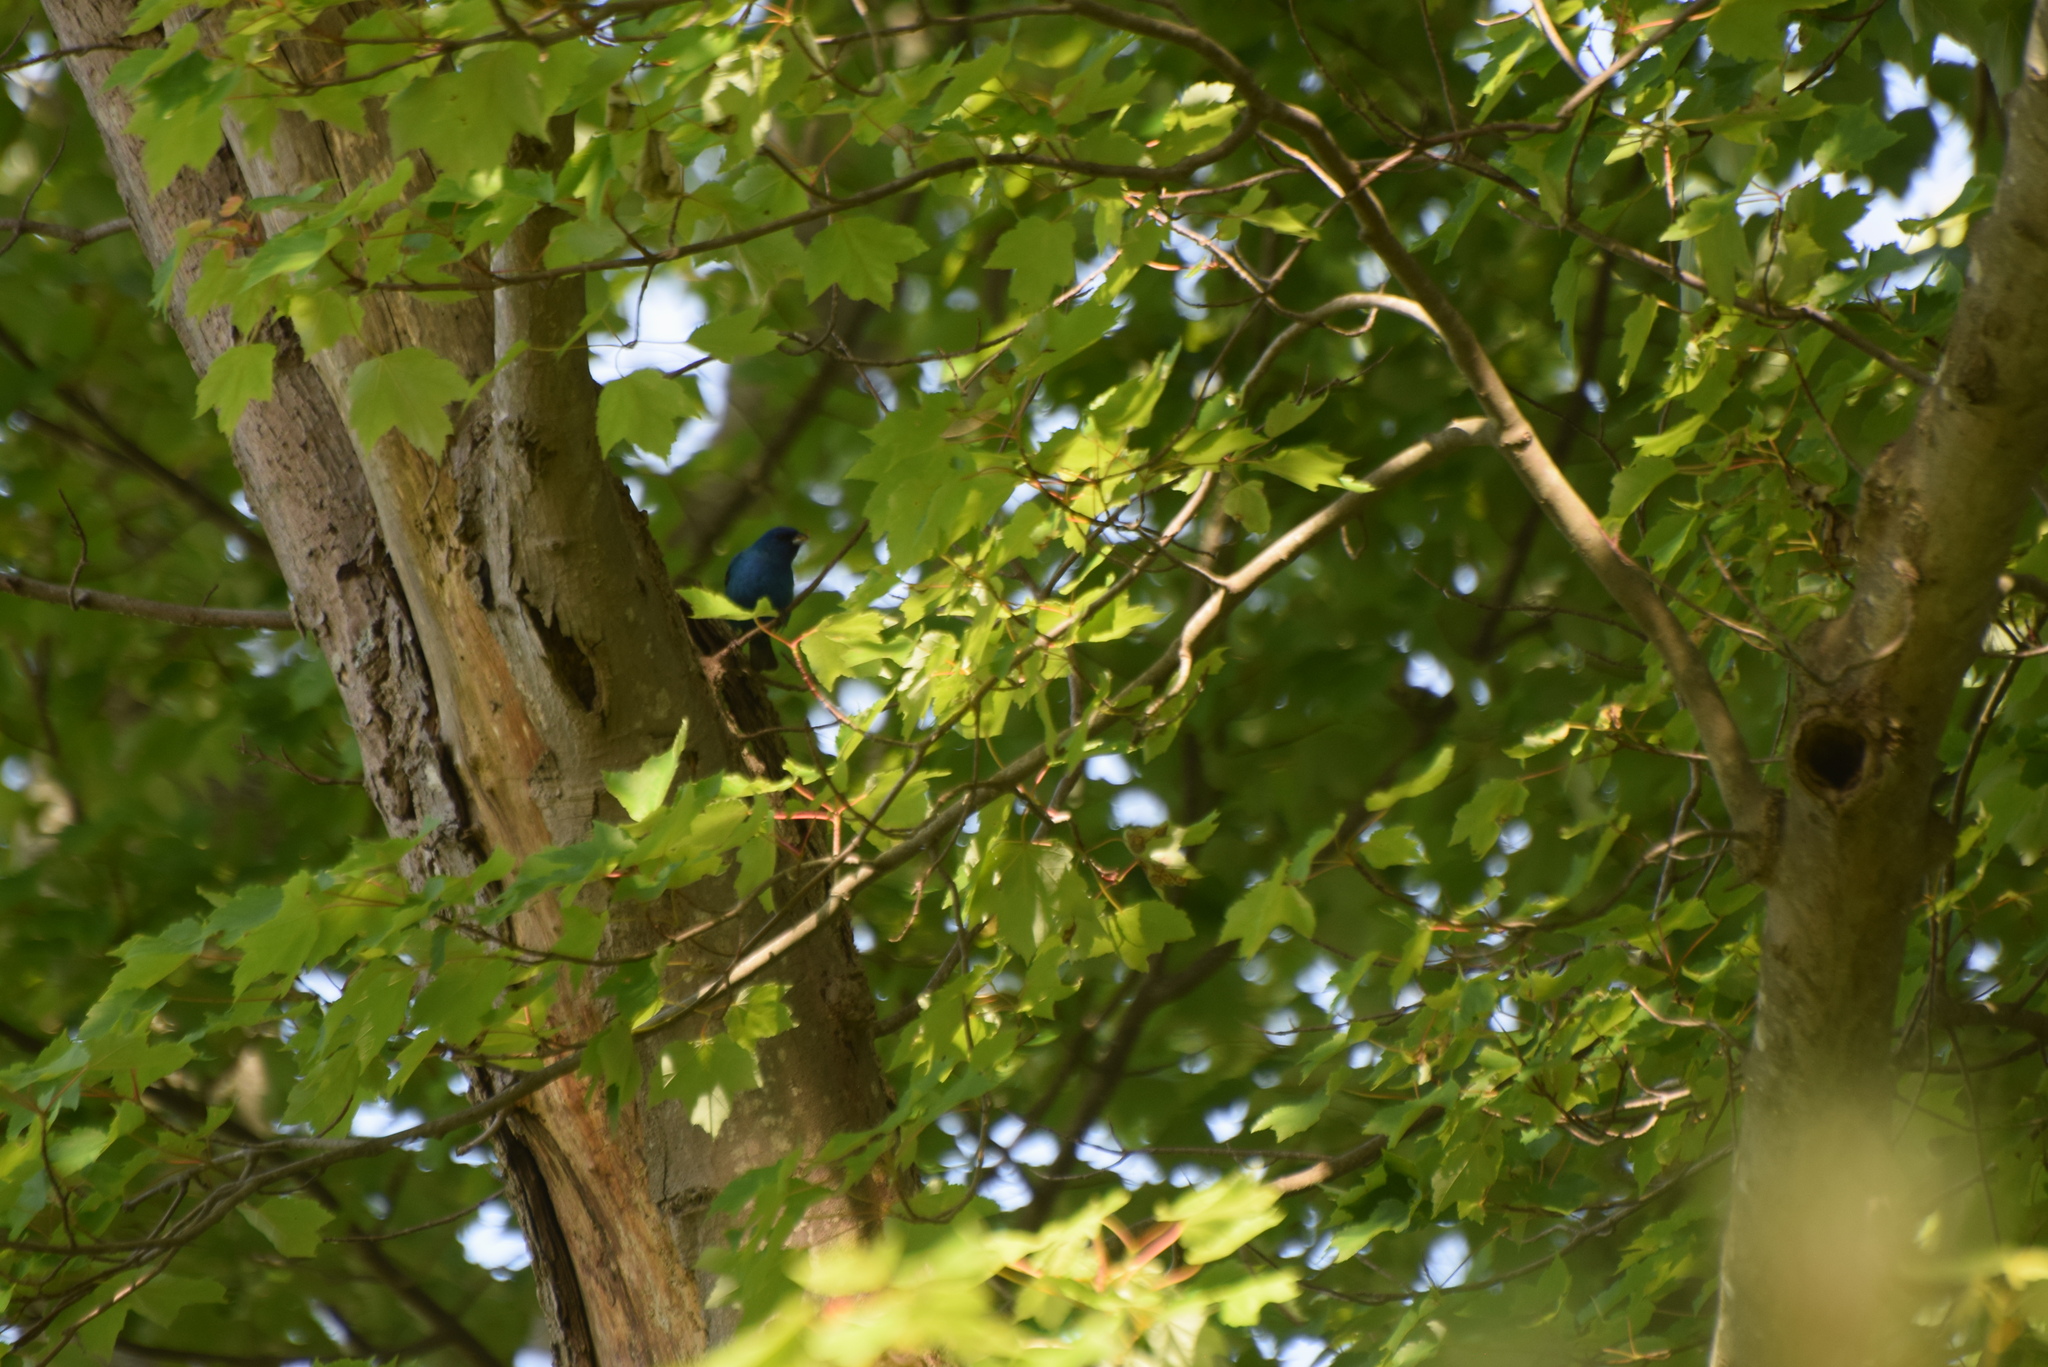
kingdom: Animalia
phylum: Chordata
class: Aves
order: Passeriformes
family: Cardinalidae
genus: Passerina
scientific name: Passerina cyanea
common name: Indigo bunting
